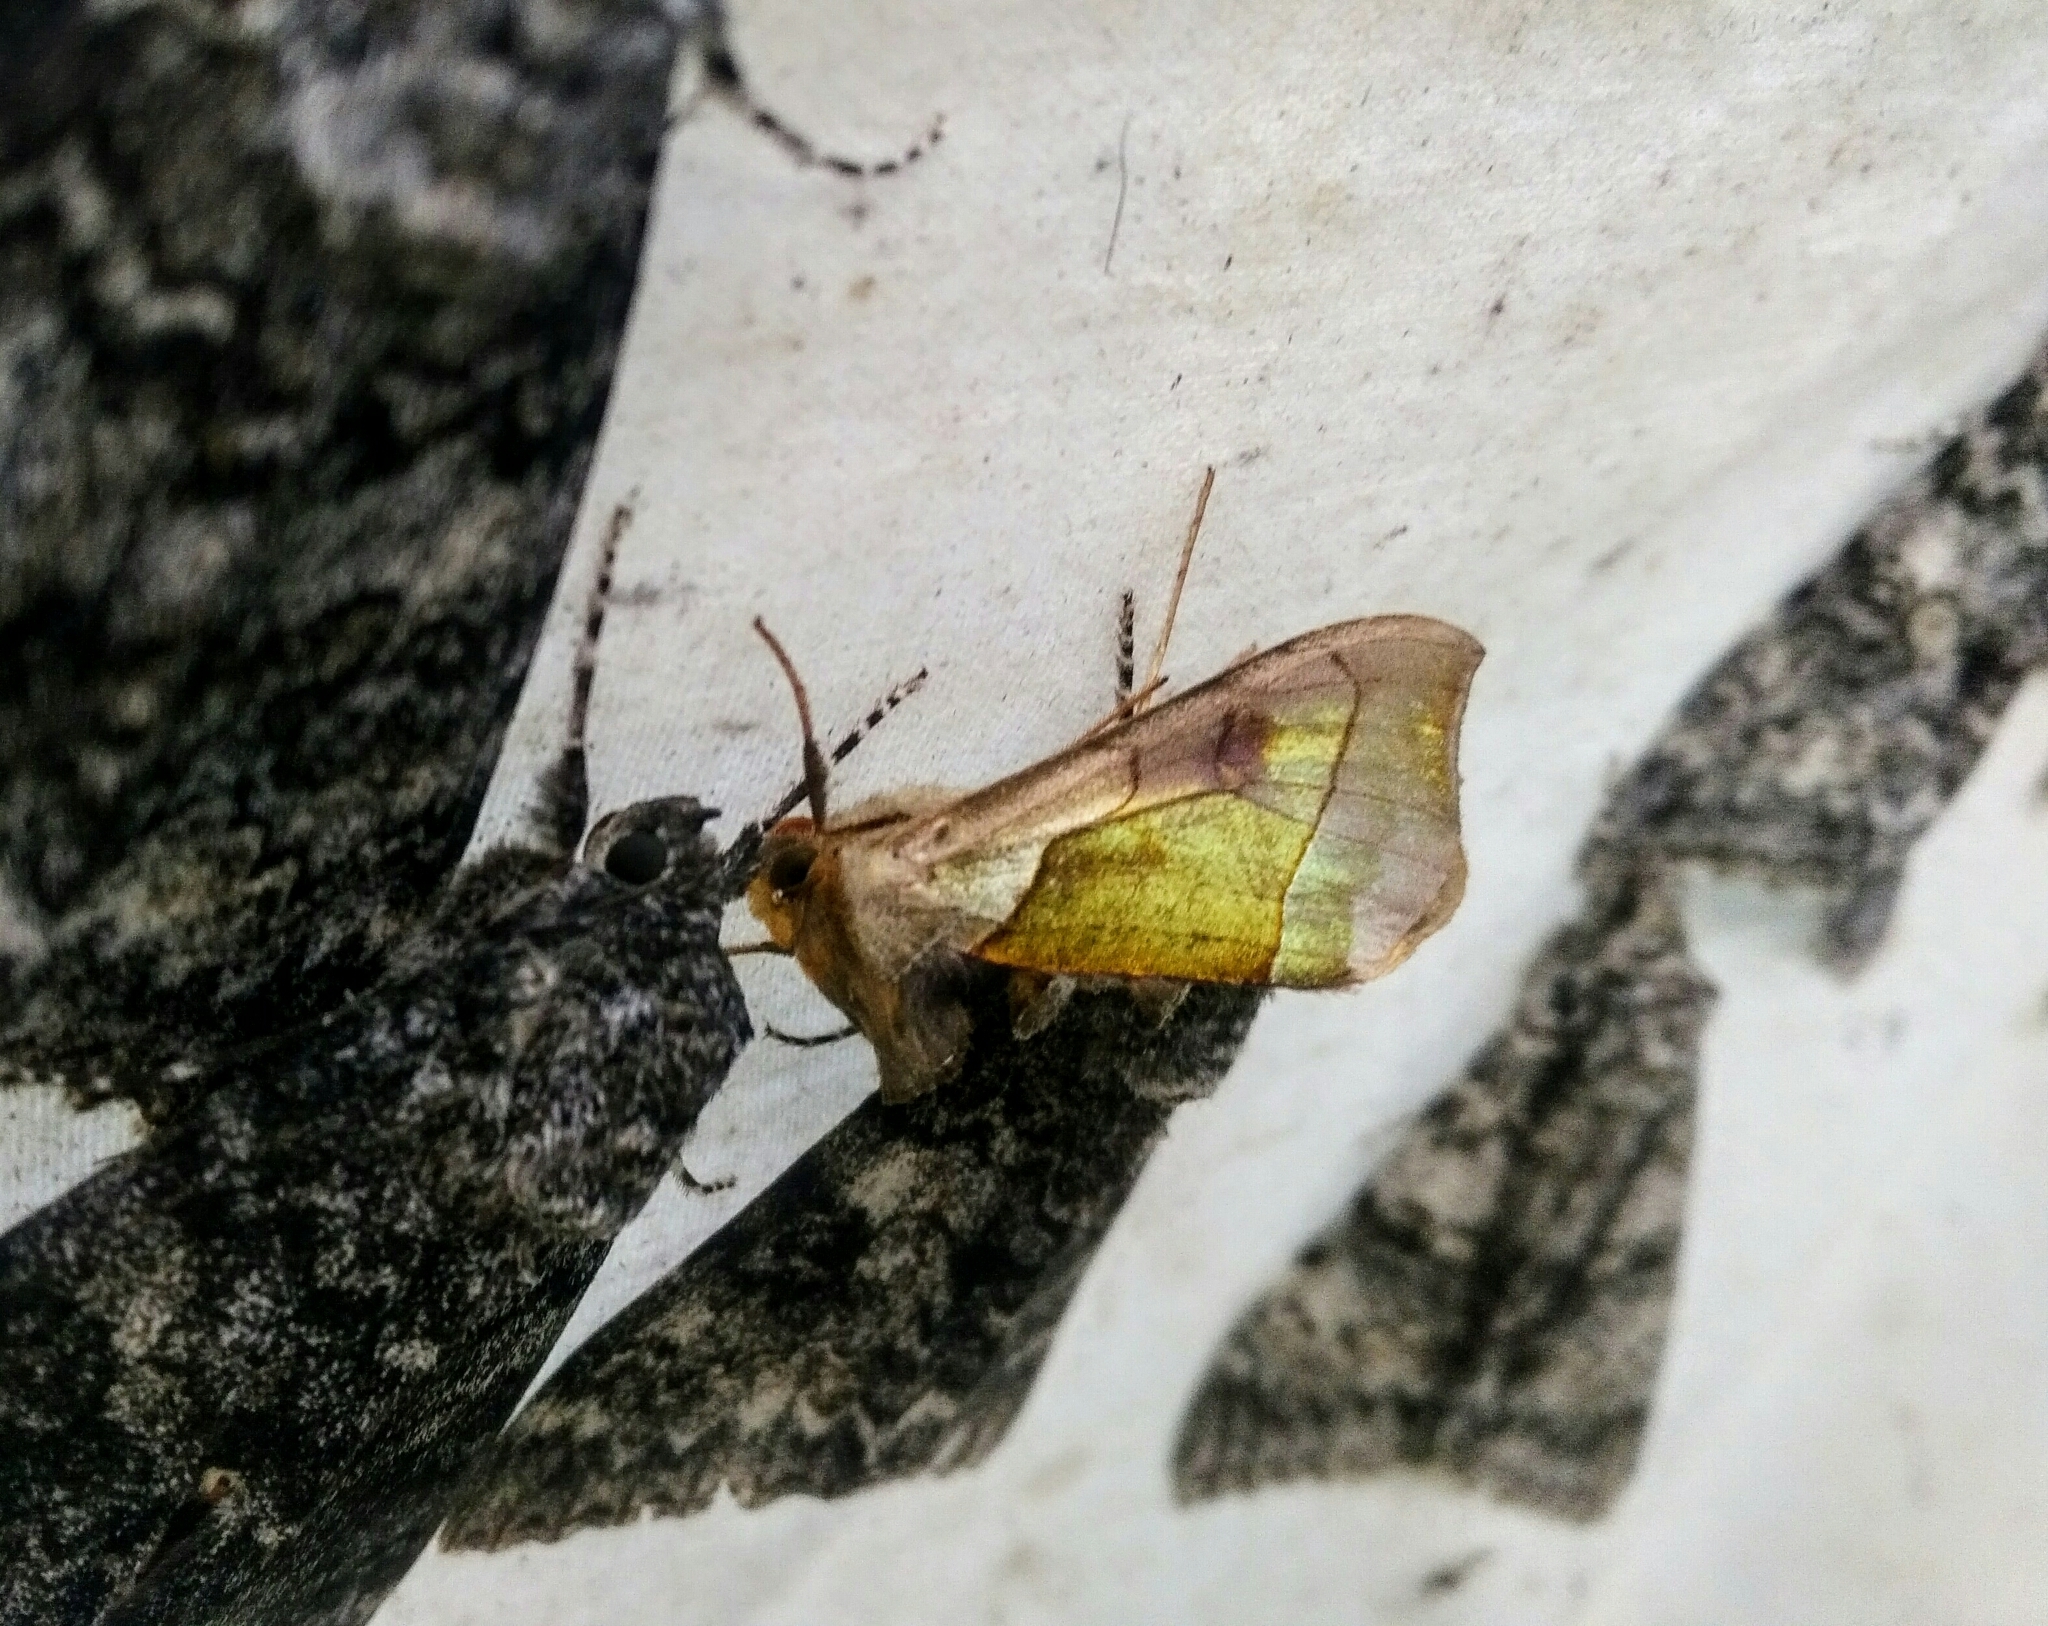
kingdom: Animalia
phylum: Arthropoda
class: Insecta
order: Lepidoptera
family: Noctuidae
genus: Diachrysia
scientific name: Diachrysia balluca
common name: Green-patched looper moth
